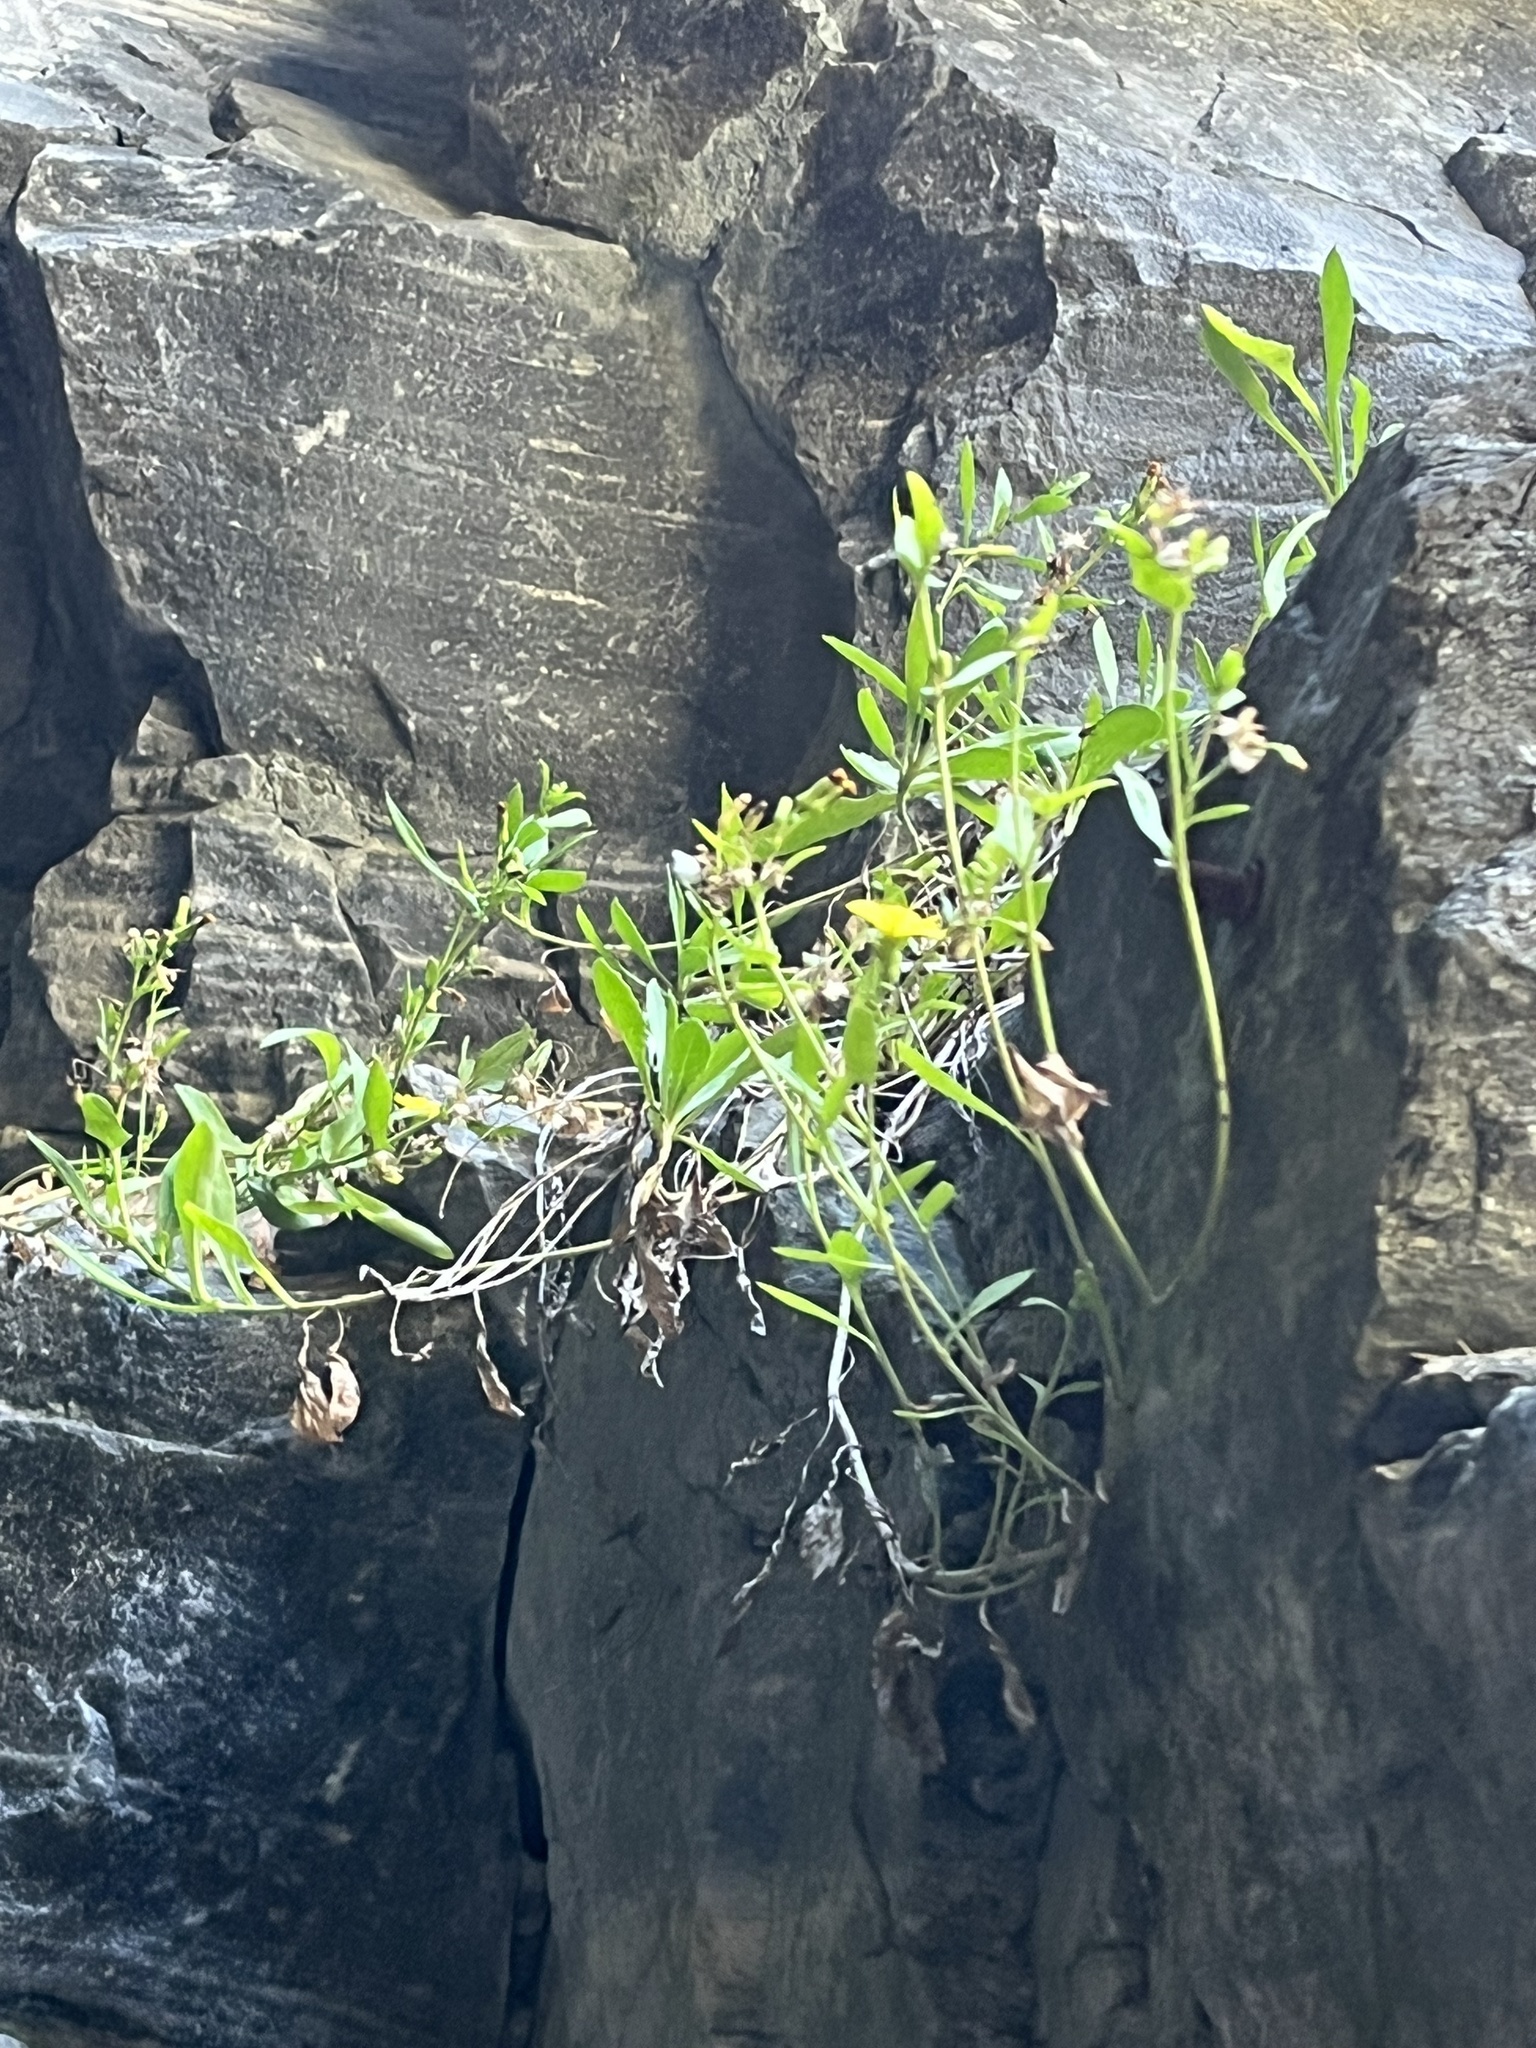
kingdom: Plantae
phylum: Tracheophyta
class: Magnoliopsida
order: Asterales
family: Asteraceae
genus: Crepidiastrum
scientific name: Crepidiastrum lanceolatum
